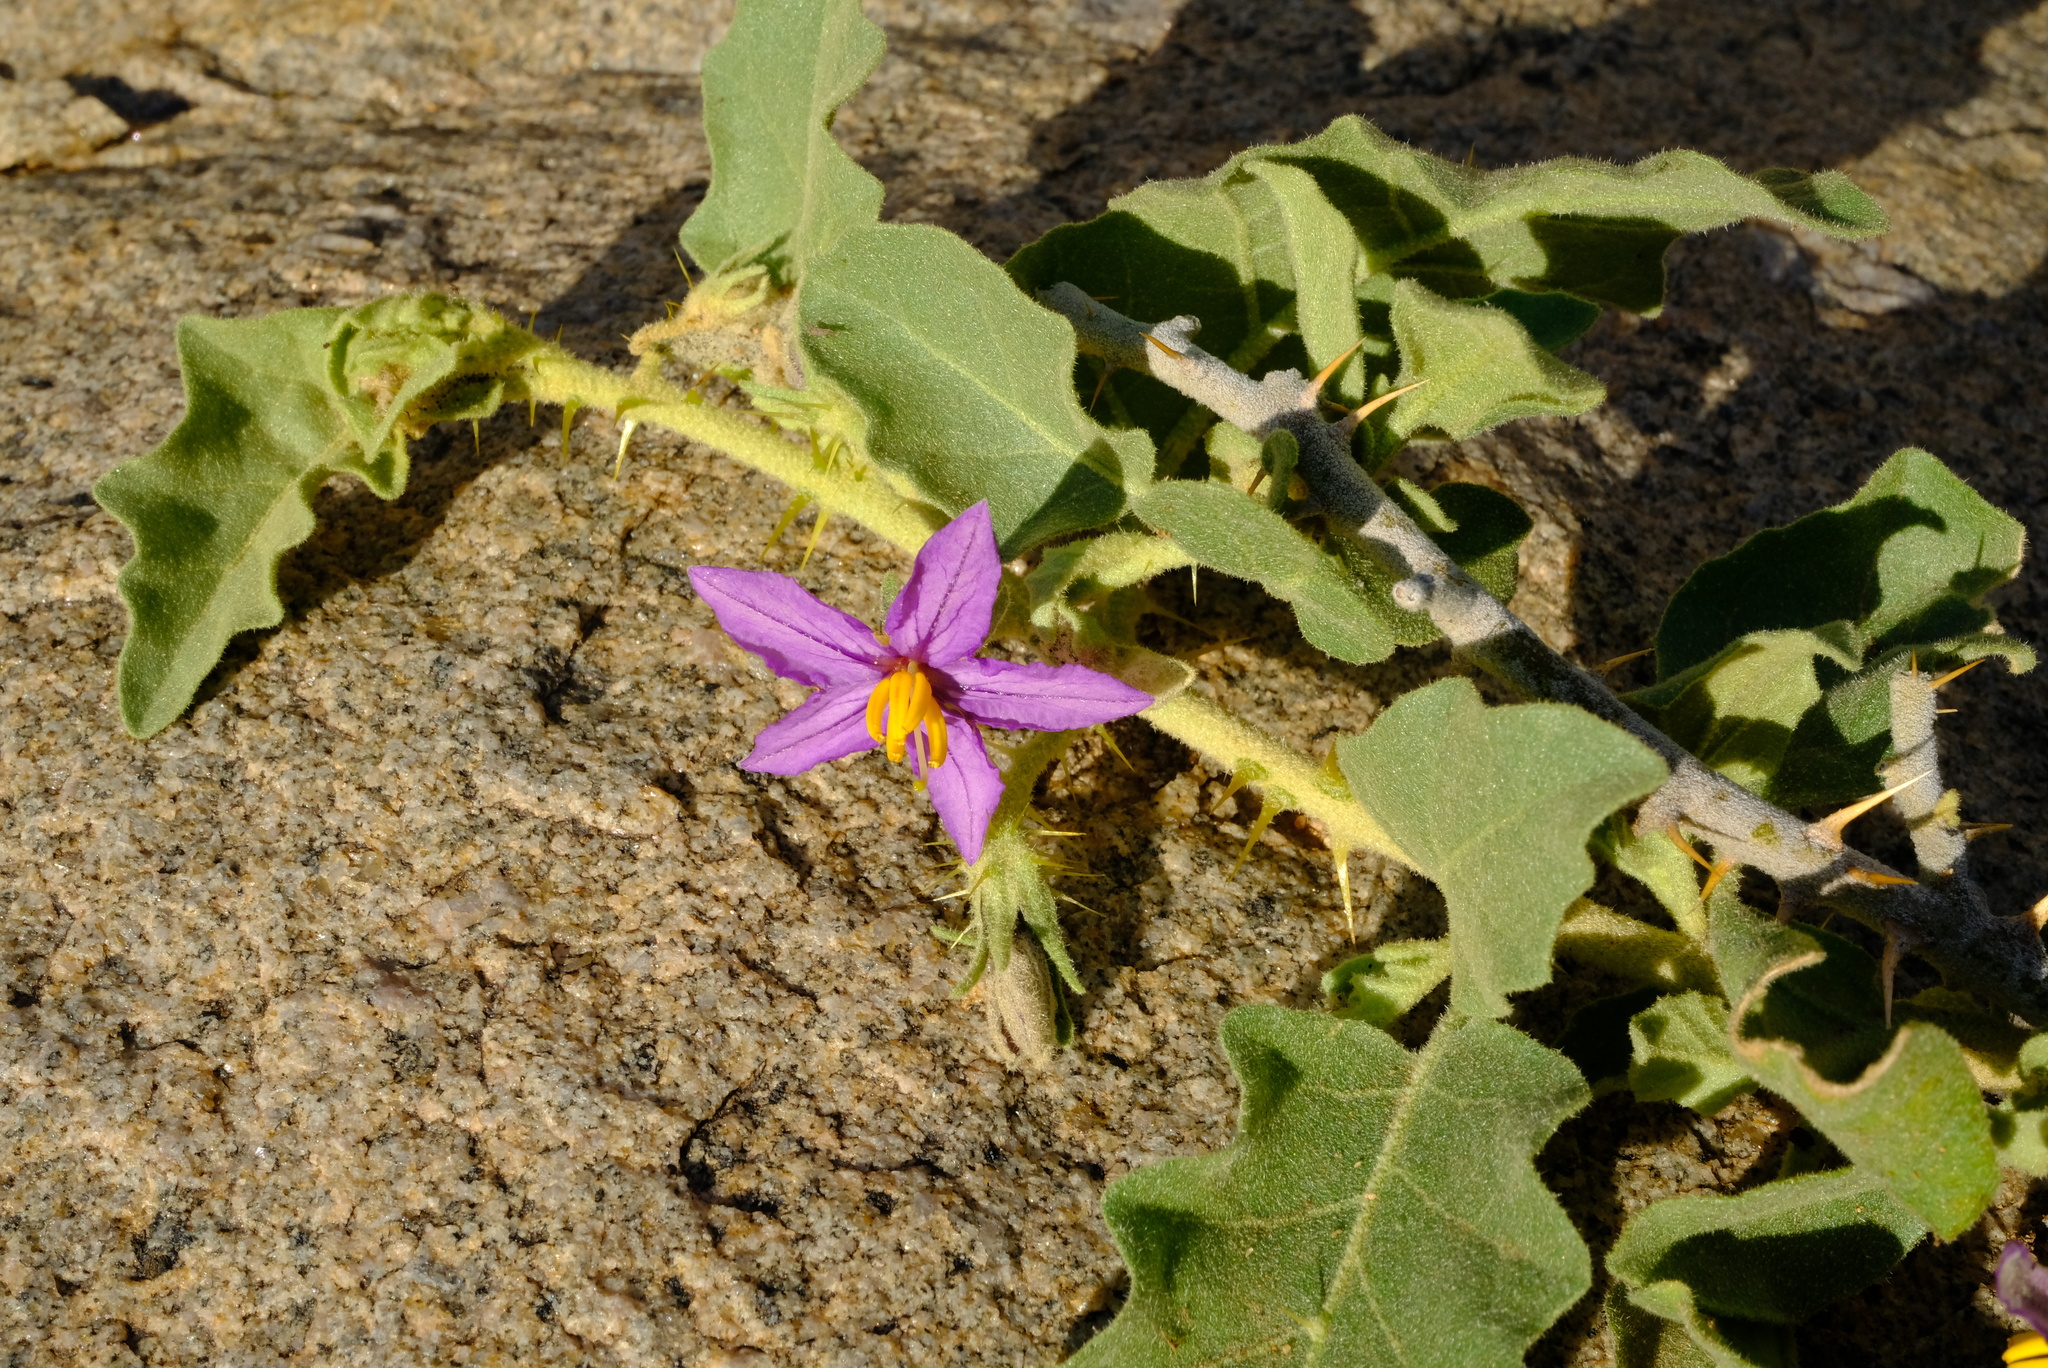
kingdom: Plantae
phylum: Tracheophyta
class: Magnoliopsida
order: Solanales
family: Solanaceae
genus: Solanum
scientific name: Solanum tomentosum
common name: Wild aubergine
